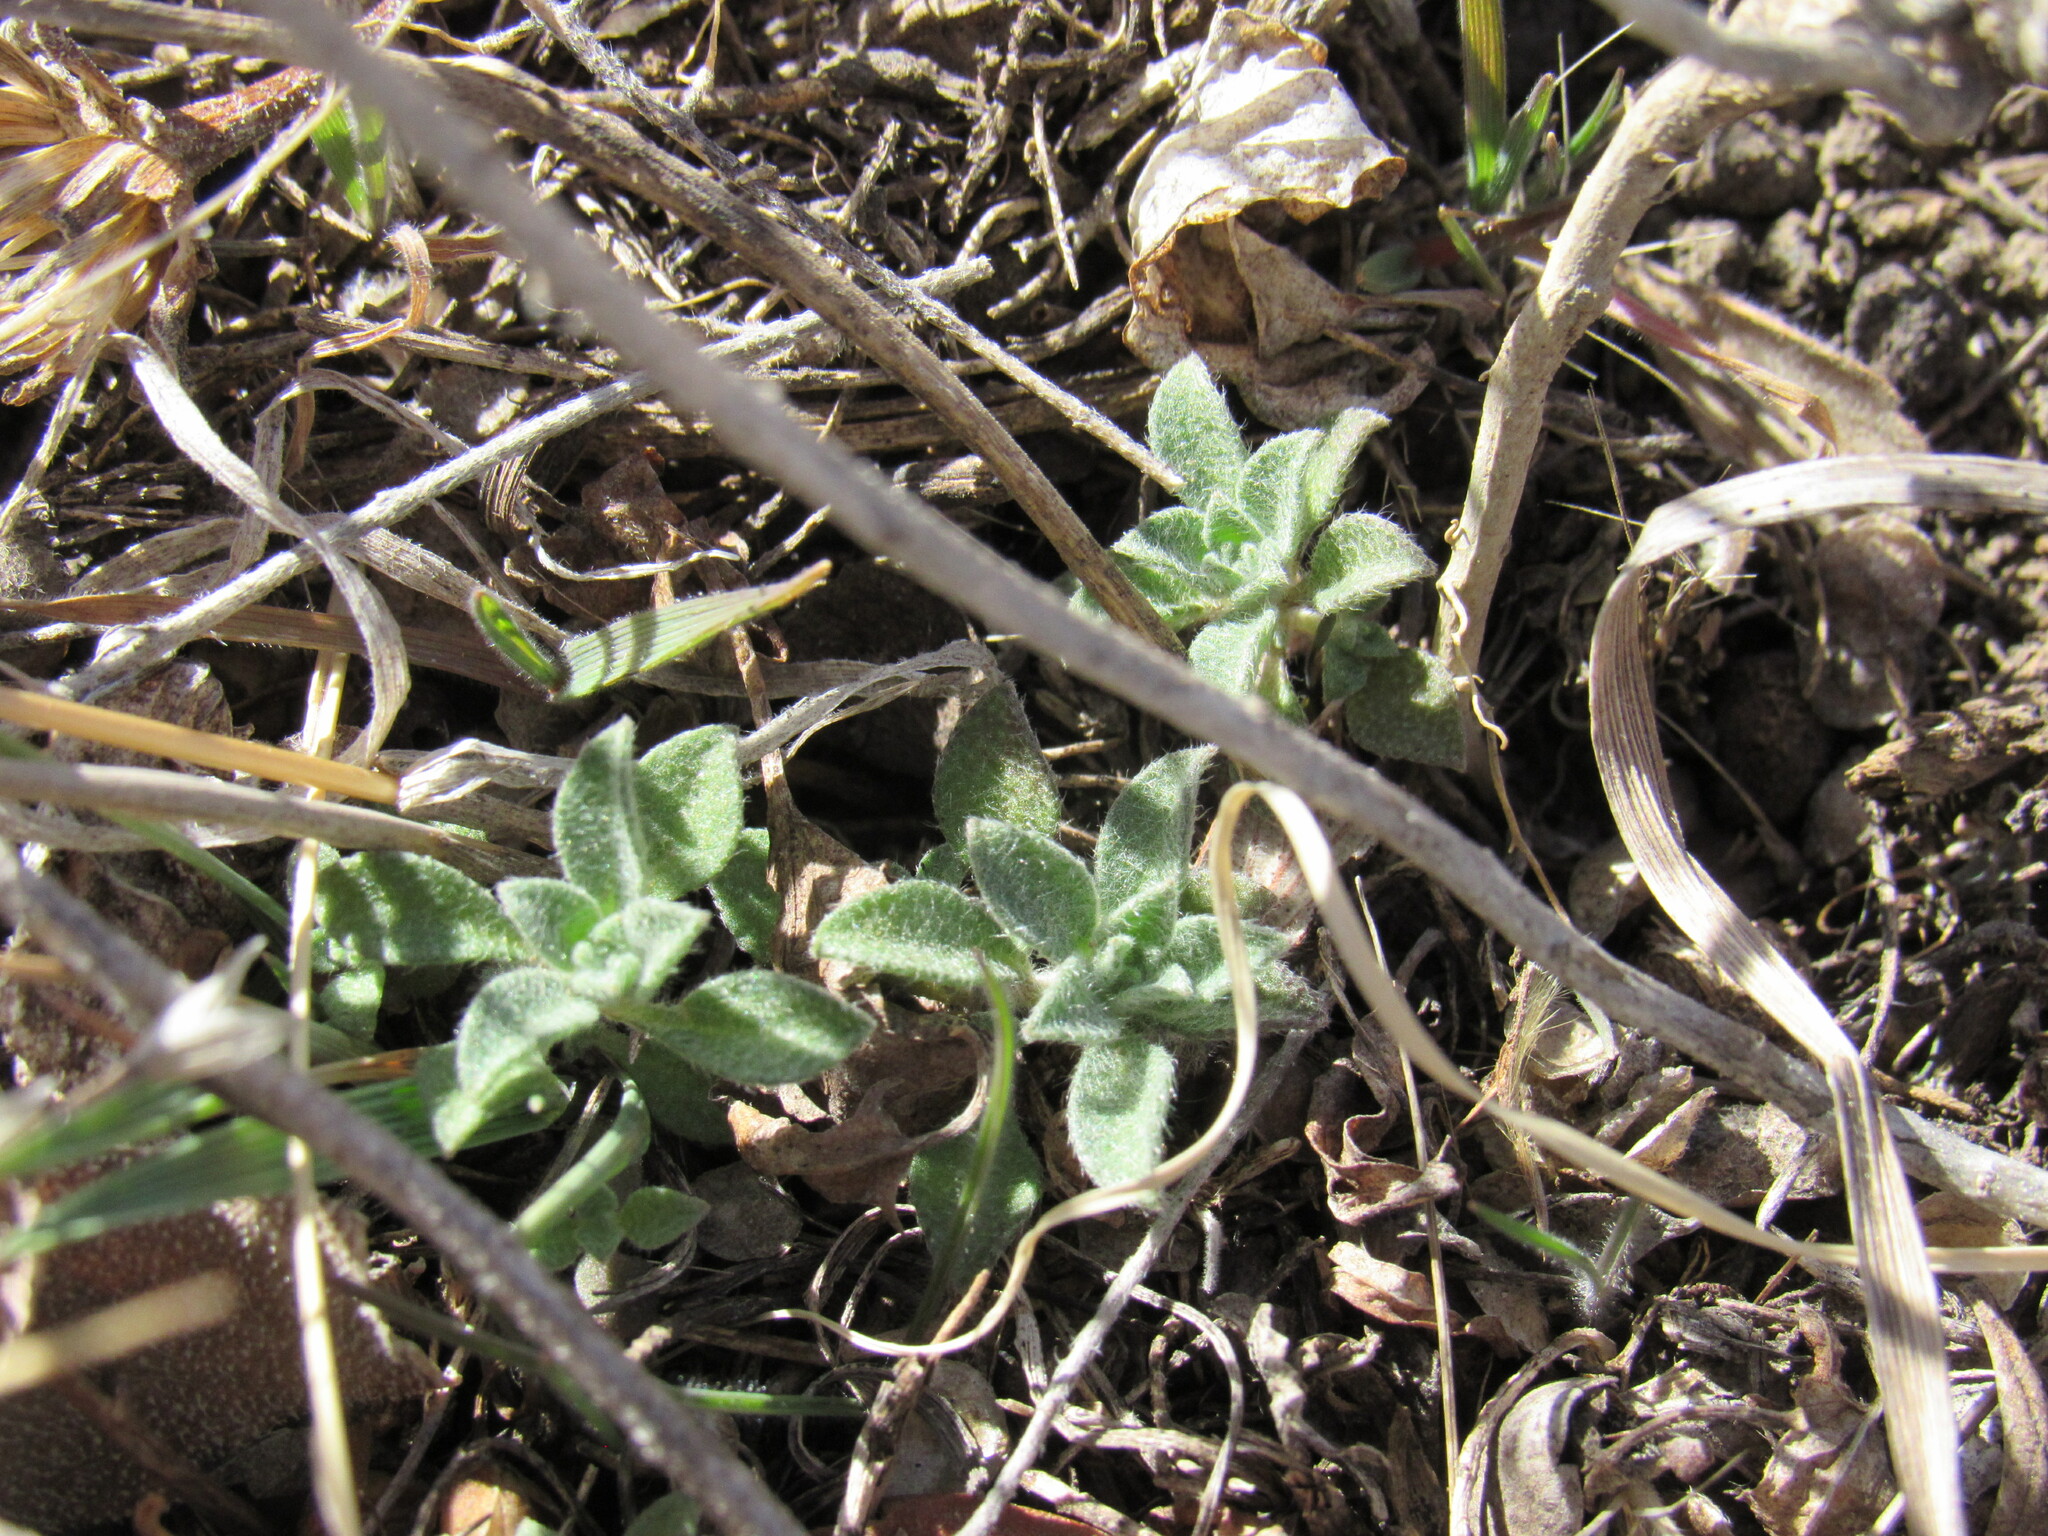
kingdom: Plantae
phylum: Tracheophyta
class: Magnoliopsida
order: Brassicales
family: Brassicaceae
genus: Alyssum
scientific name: Alyssum simplex
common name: Alyssum
